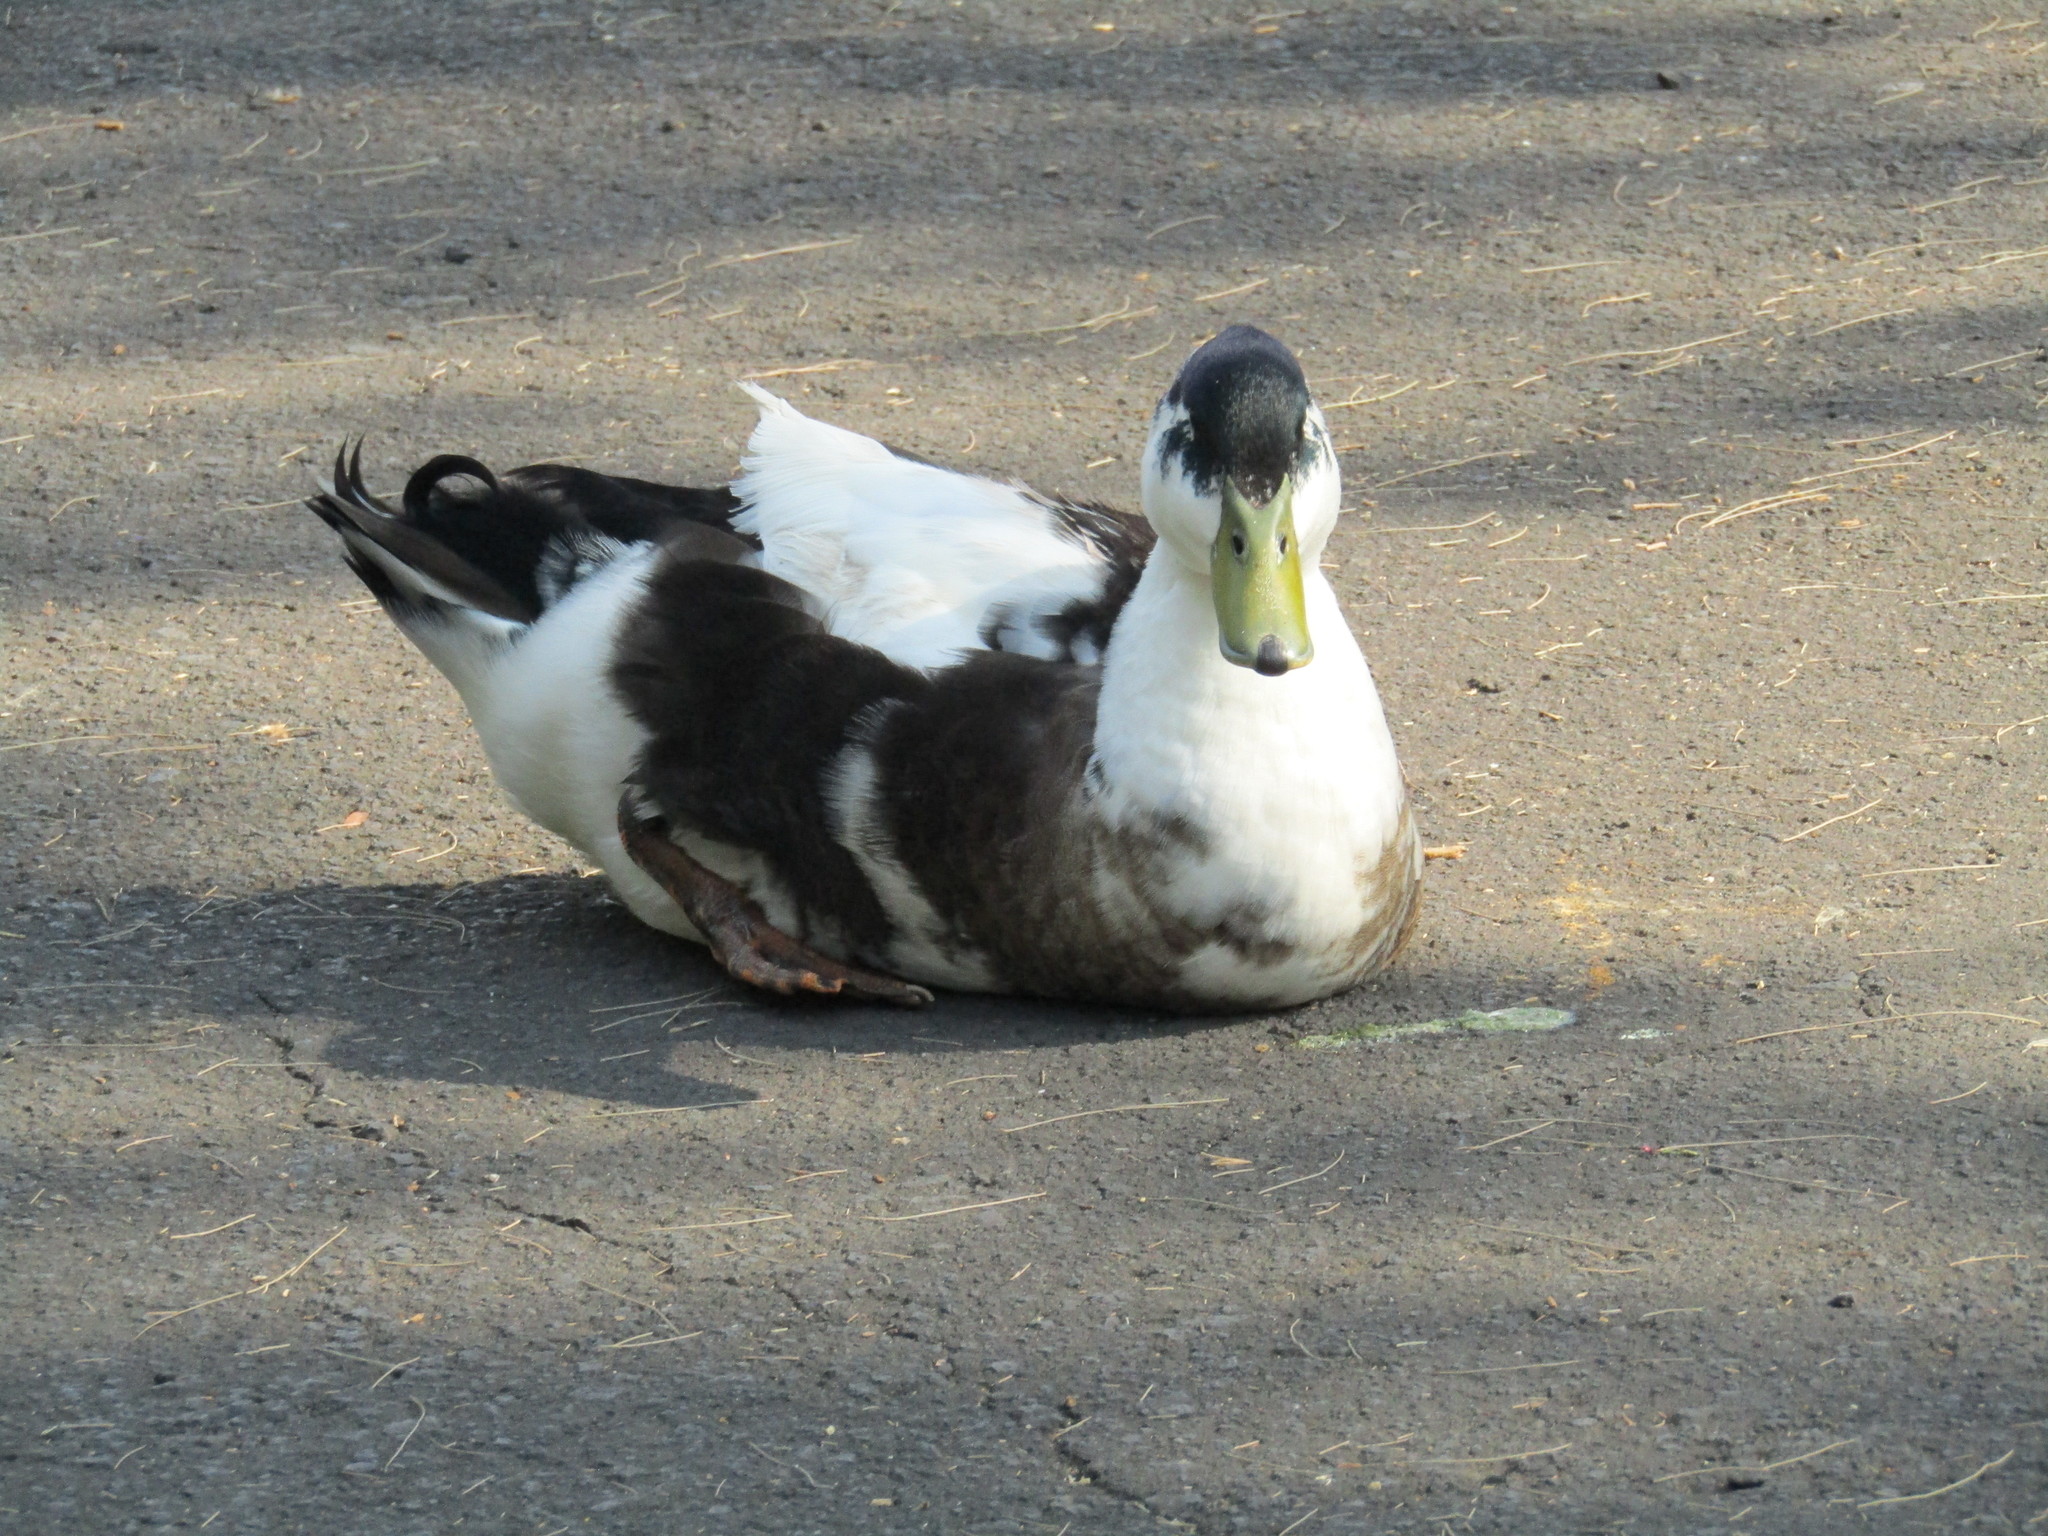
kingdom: Animalia
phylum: Chordata
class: Aves
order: Anseriformes
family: Anatidae
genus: Anas
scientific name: Anas platyrhynchos
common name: Mallard
